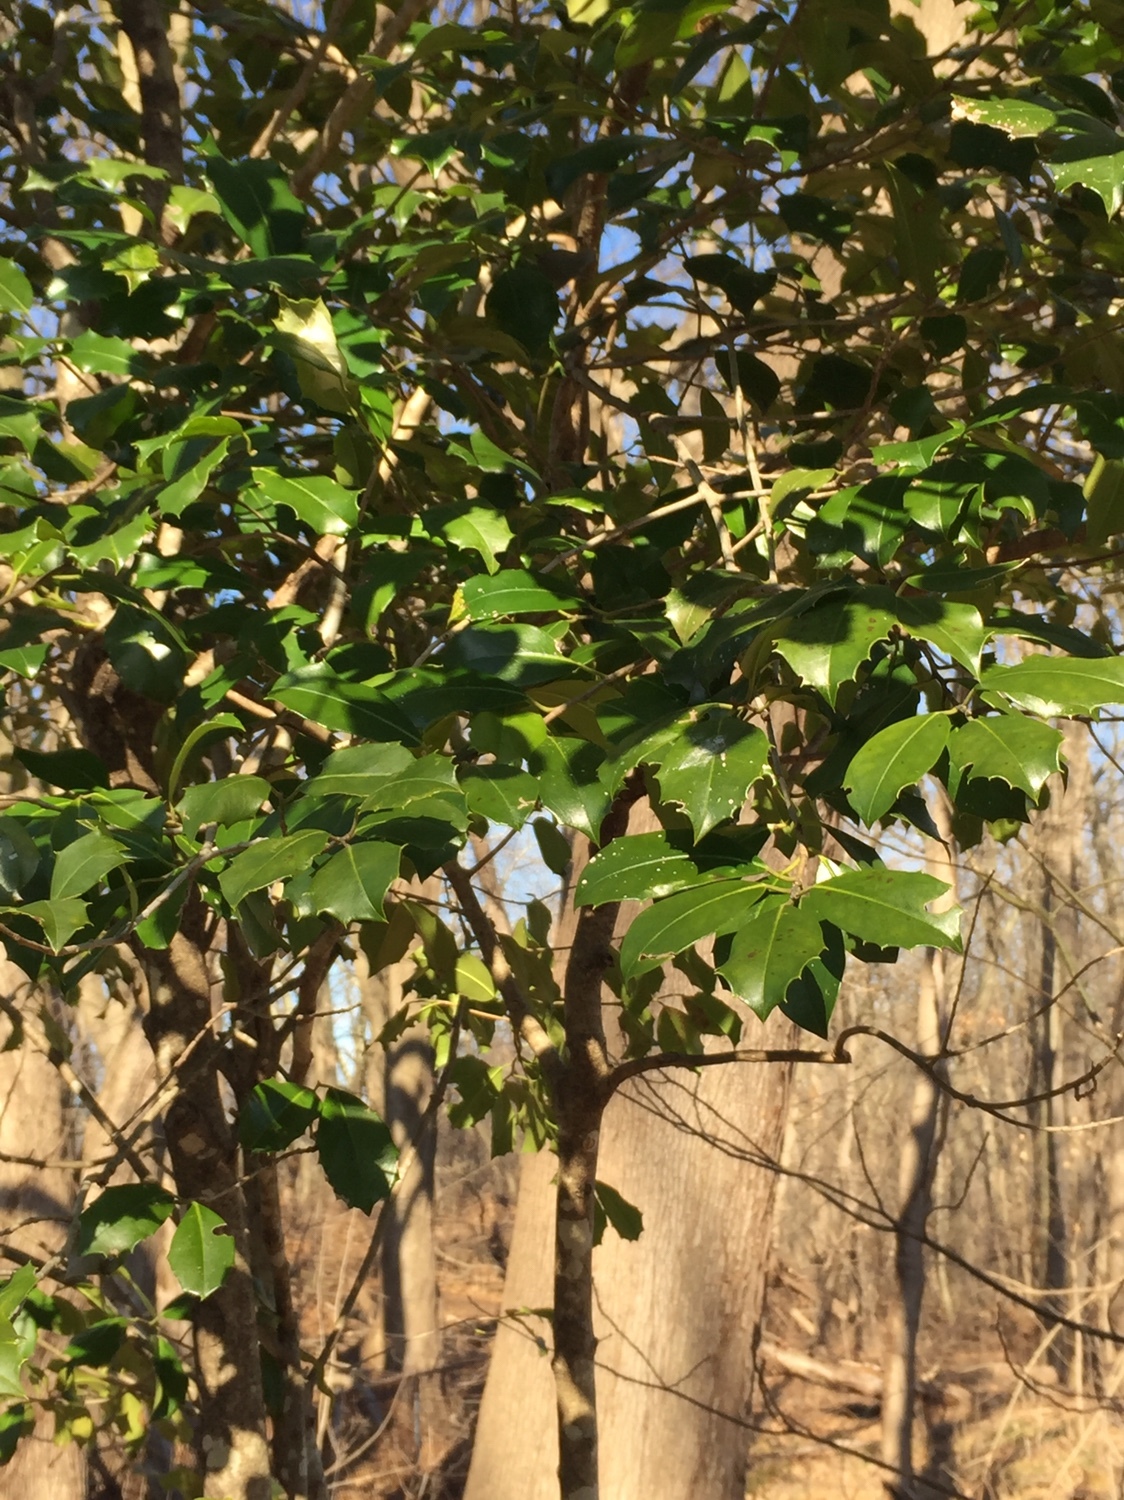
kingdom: Plantae
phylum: Tracheophyta
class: Magnoliopsida
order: Aquifoliales
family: Aquifoliaceae
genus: Ilex
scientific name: Ilex opaca
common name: American holly
